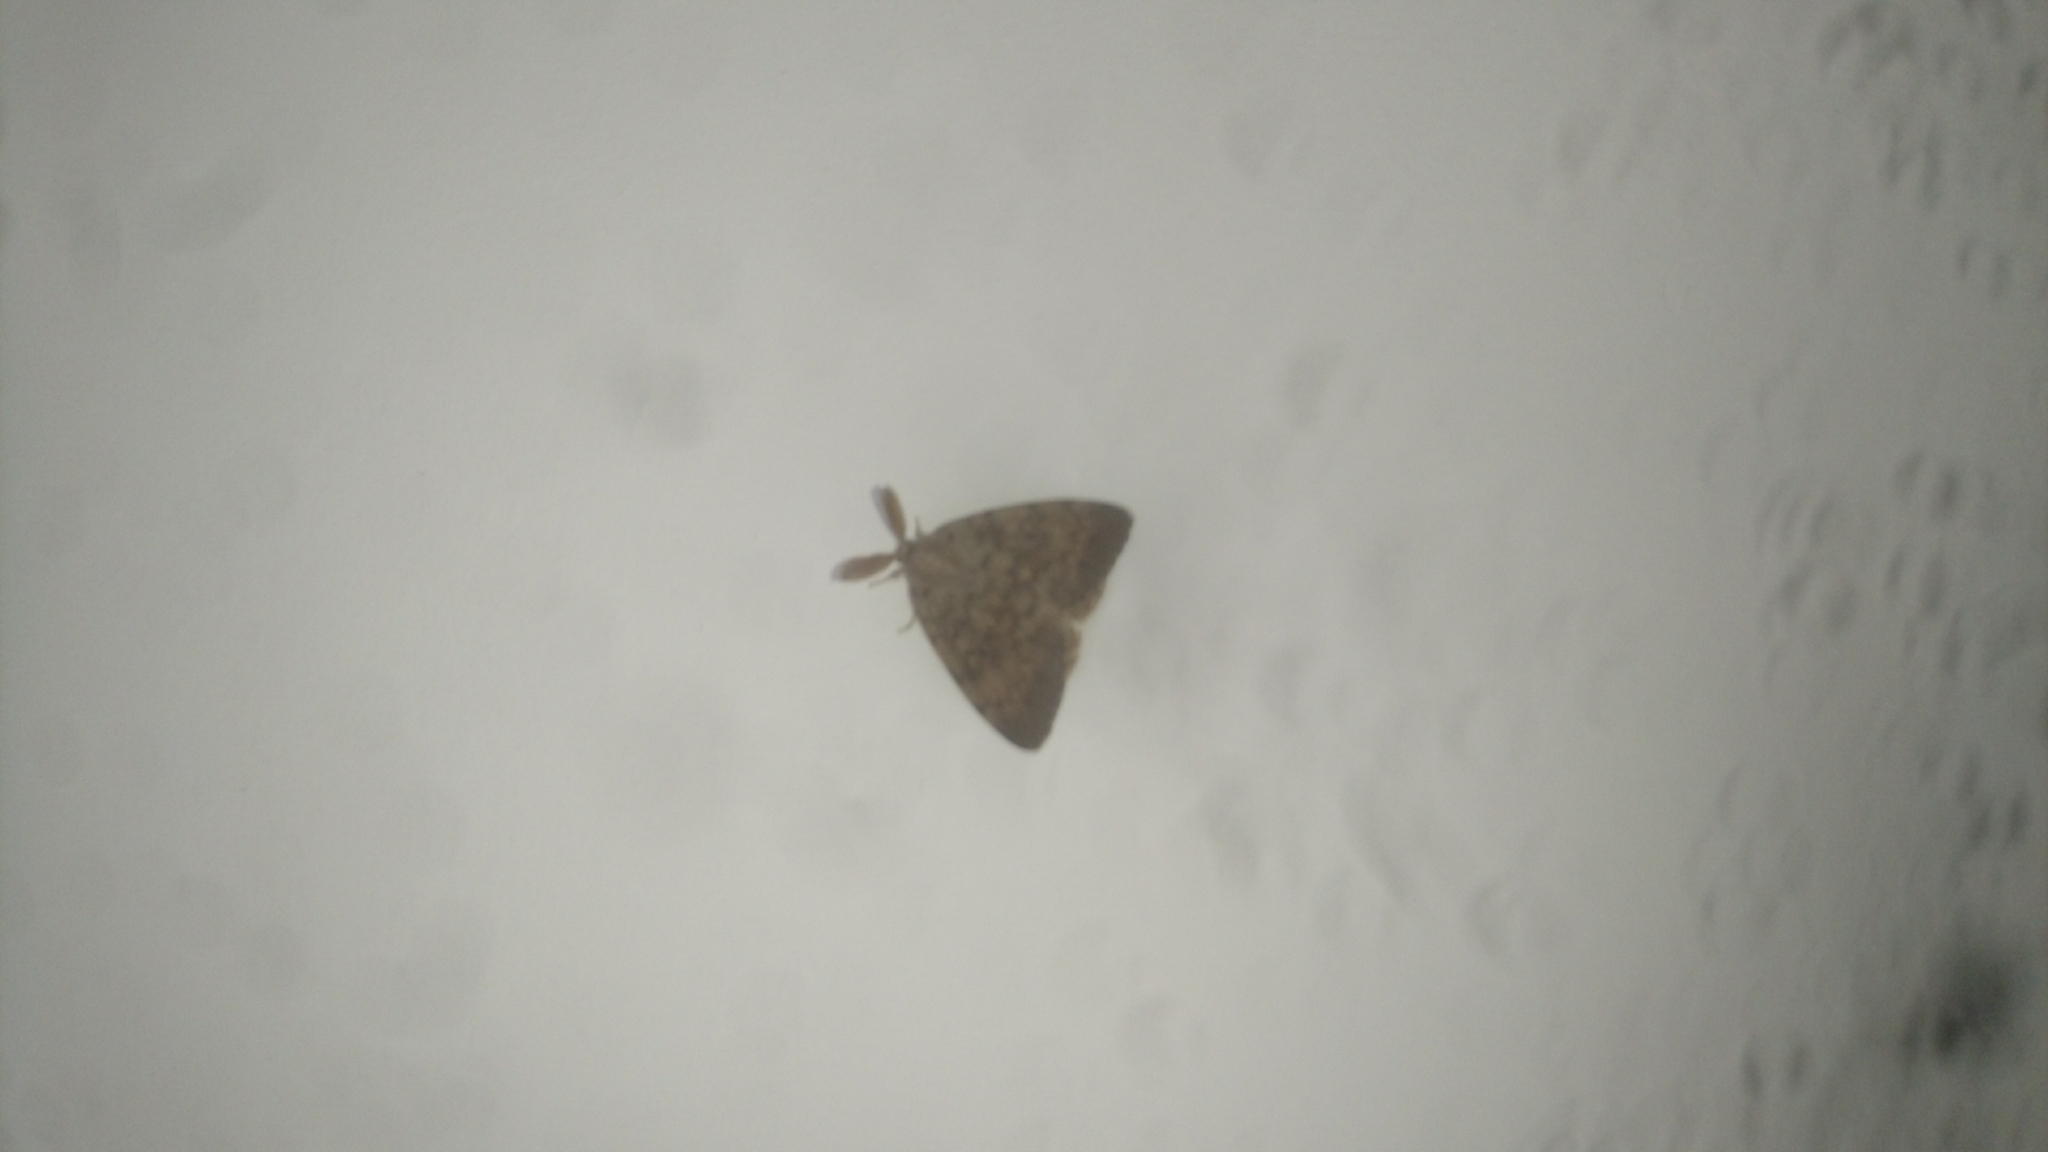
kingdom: Animalia
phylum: Arthropoda
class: Insecta
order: Lepidoptera
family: Erebidae
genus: Lymantria
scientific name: Lymantria dispar
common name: Gypsy moth
